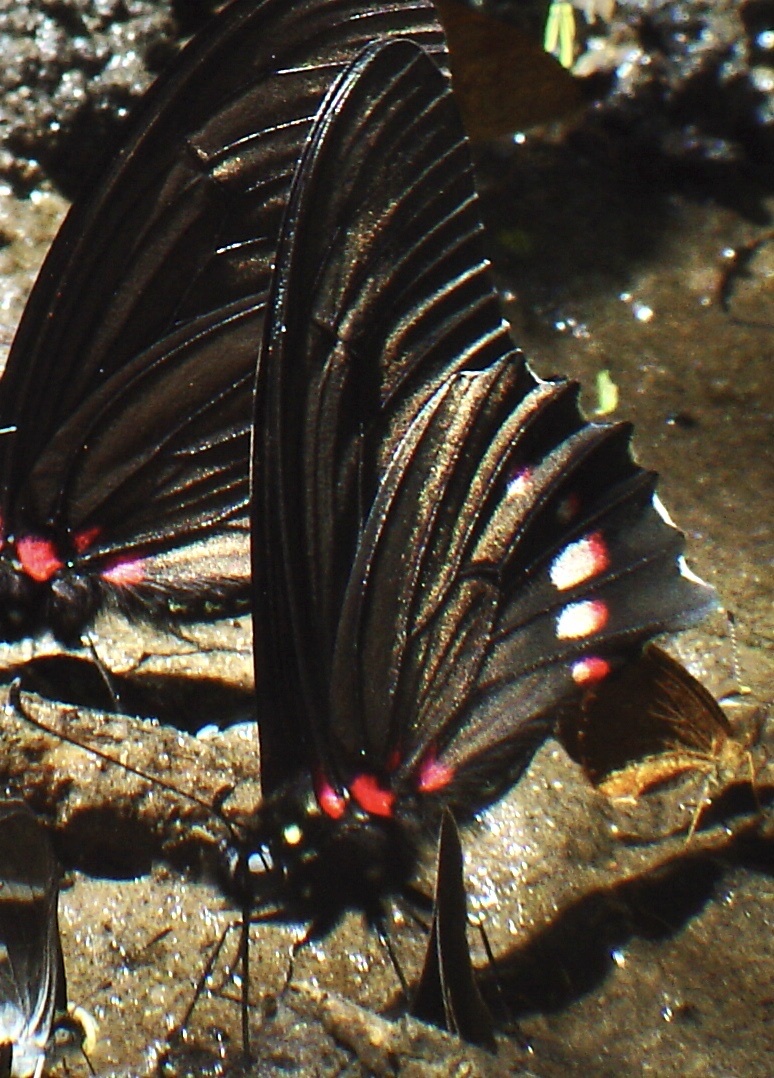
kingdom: Animalia
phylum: Arthropoda
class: Insecta
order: Lepidoptera
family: Papilionidae
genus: Mimoides
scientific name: Mimoides xeniades
